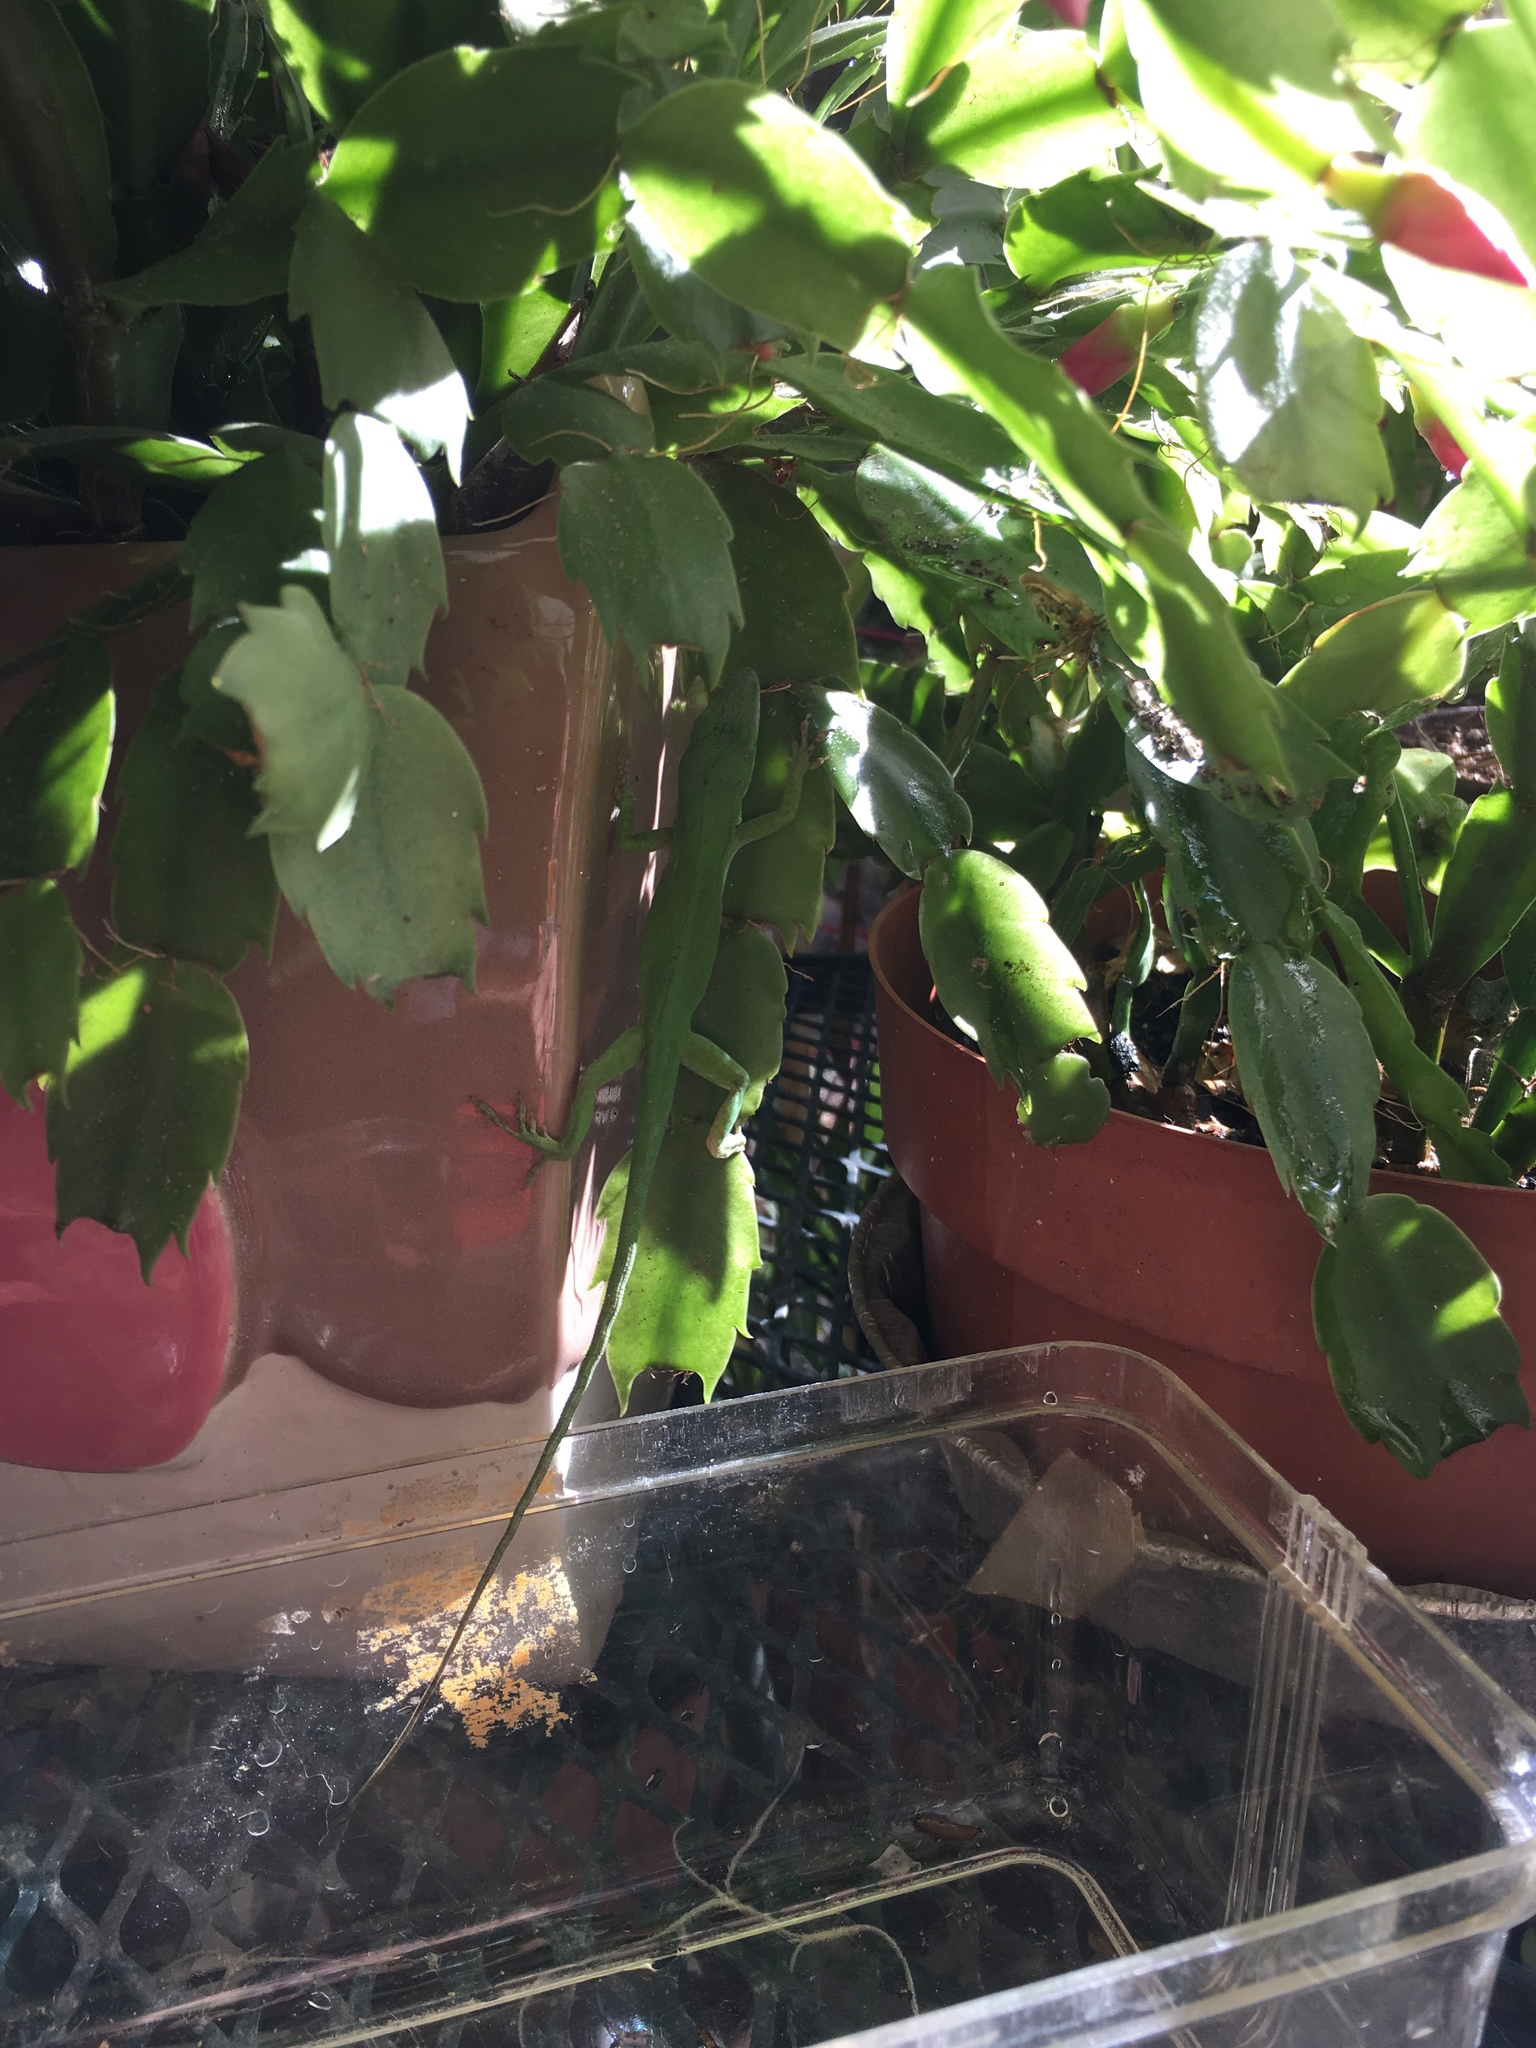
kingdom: Animalia
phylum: Chordata
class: Squamata
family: Dactyloidae
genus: Anolis
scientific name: Anolis carolinensis
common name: Green anole
